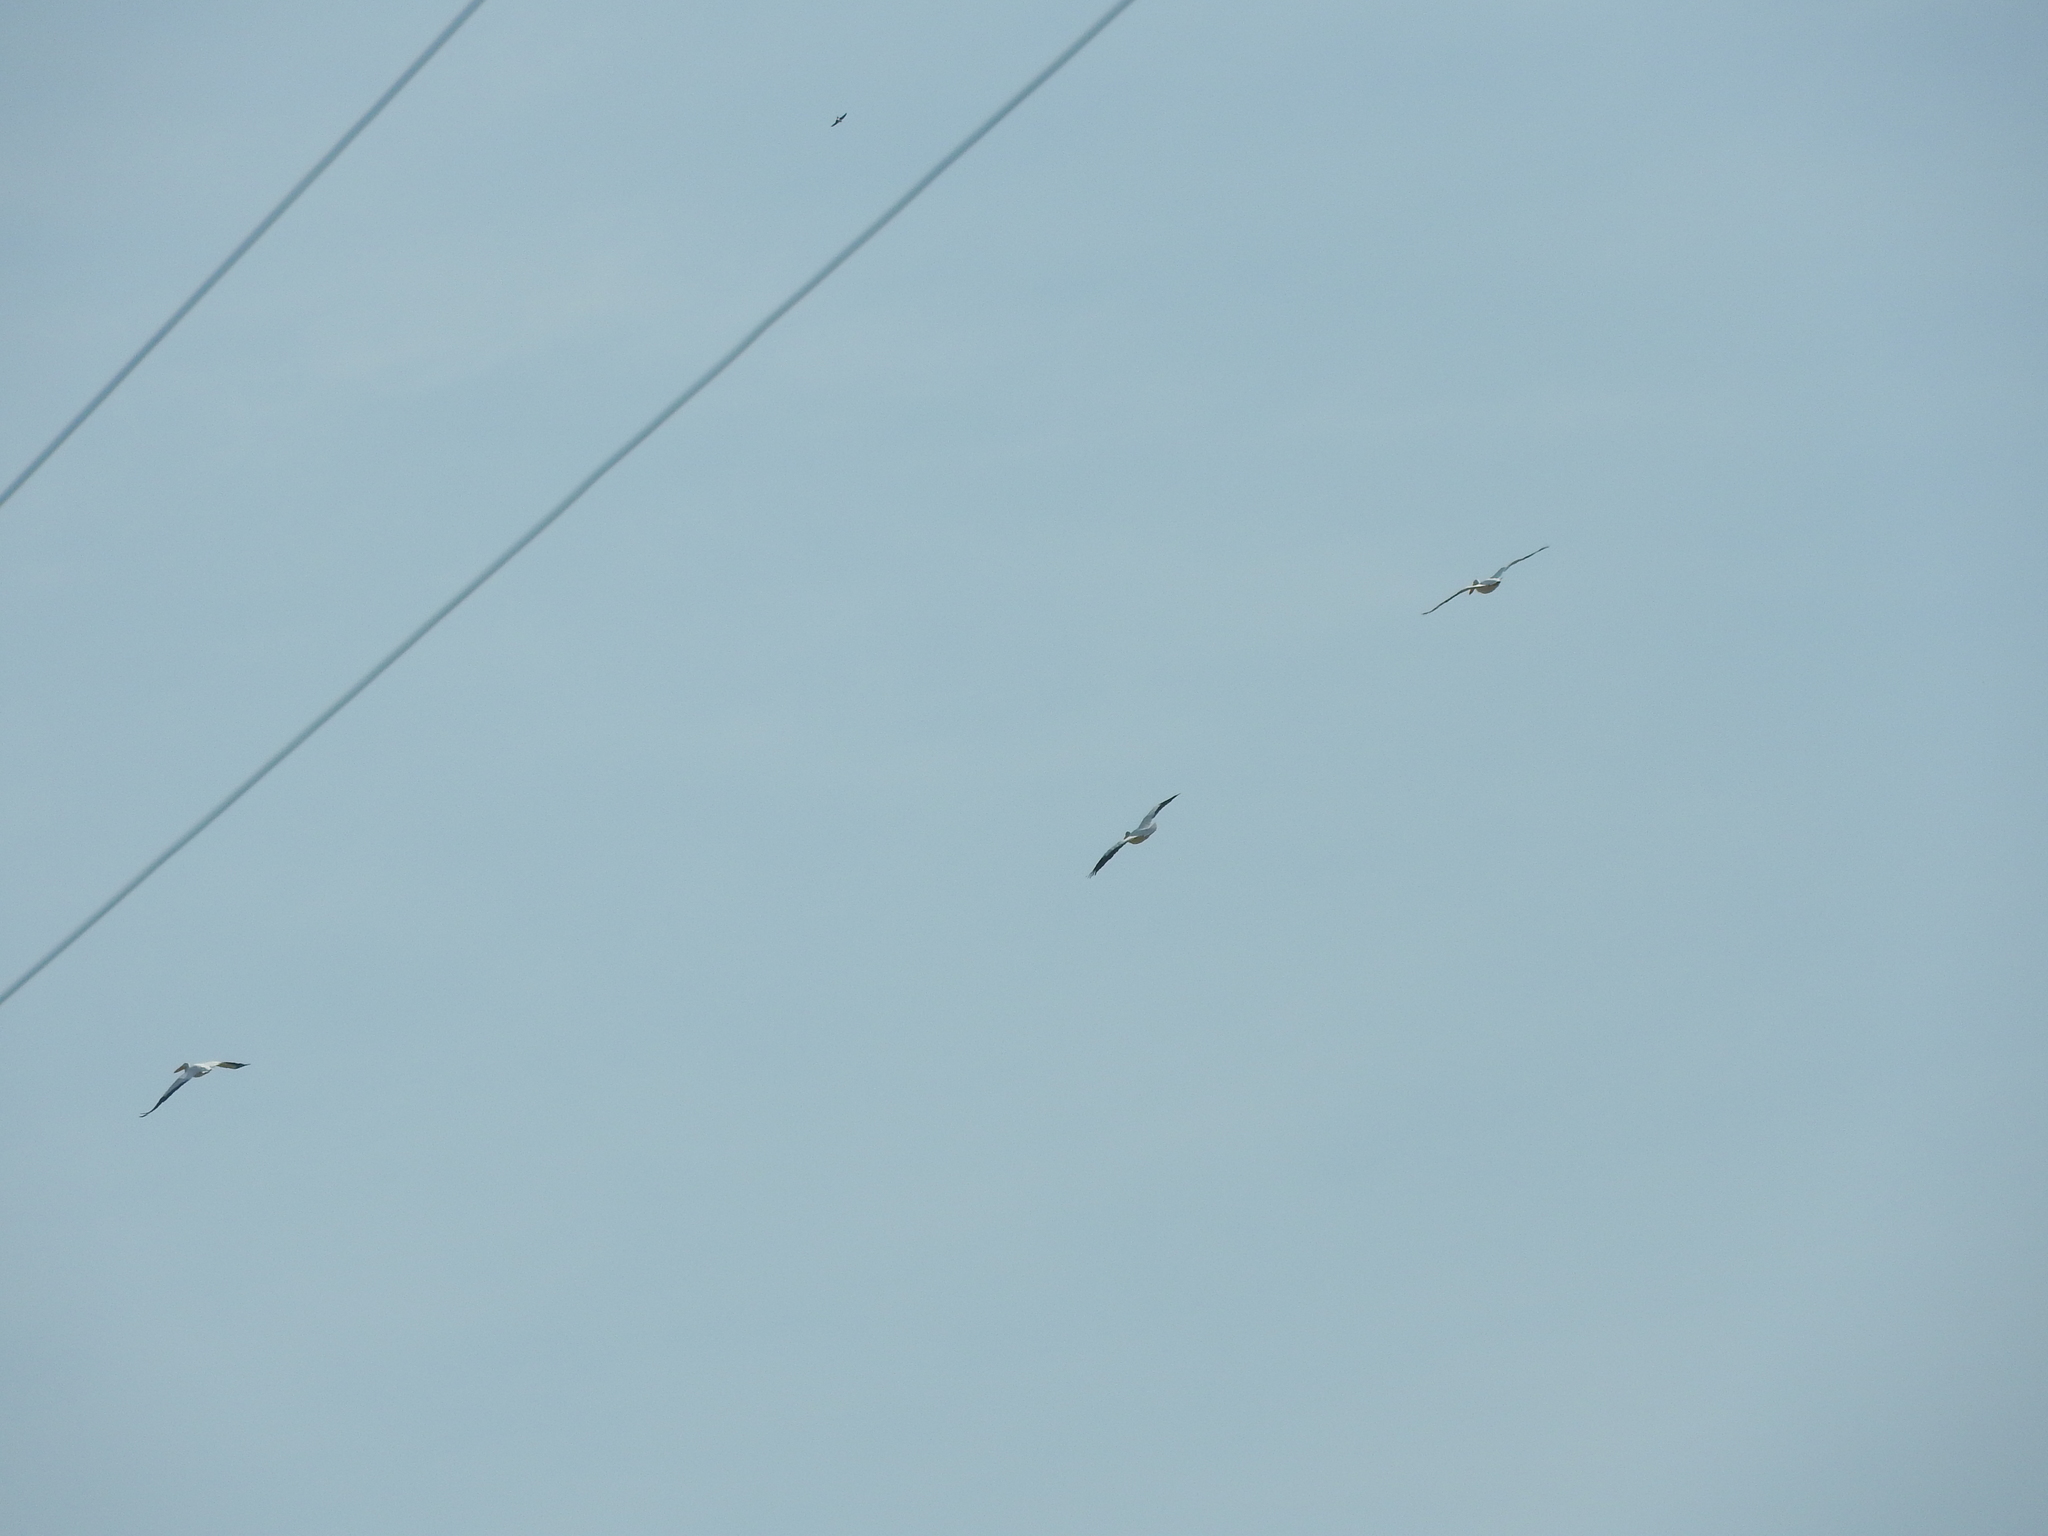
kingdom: Animalia
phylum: Chordata
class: Aves
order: Pelecaniformes
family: Pelecanidae
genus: Pelecanus
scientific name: Pelecanus erythrorhynchos
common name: American white pelican
